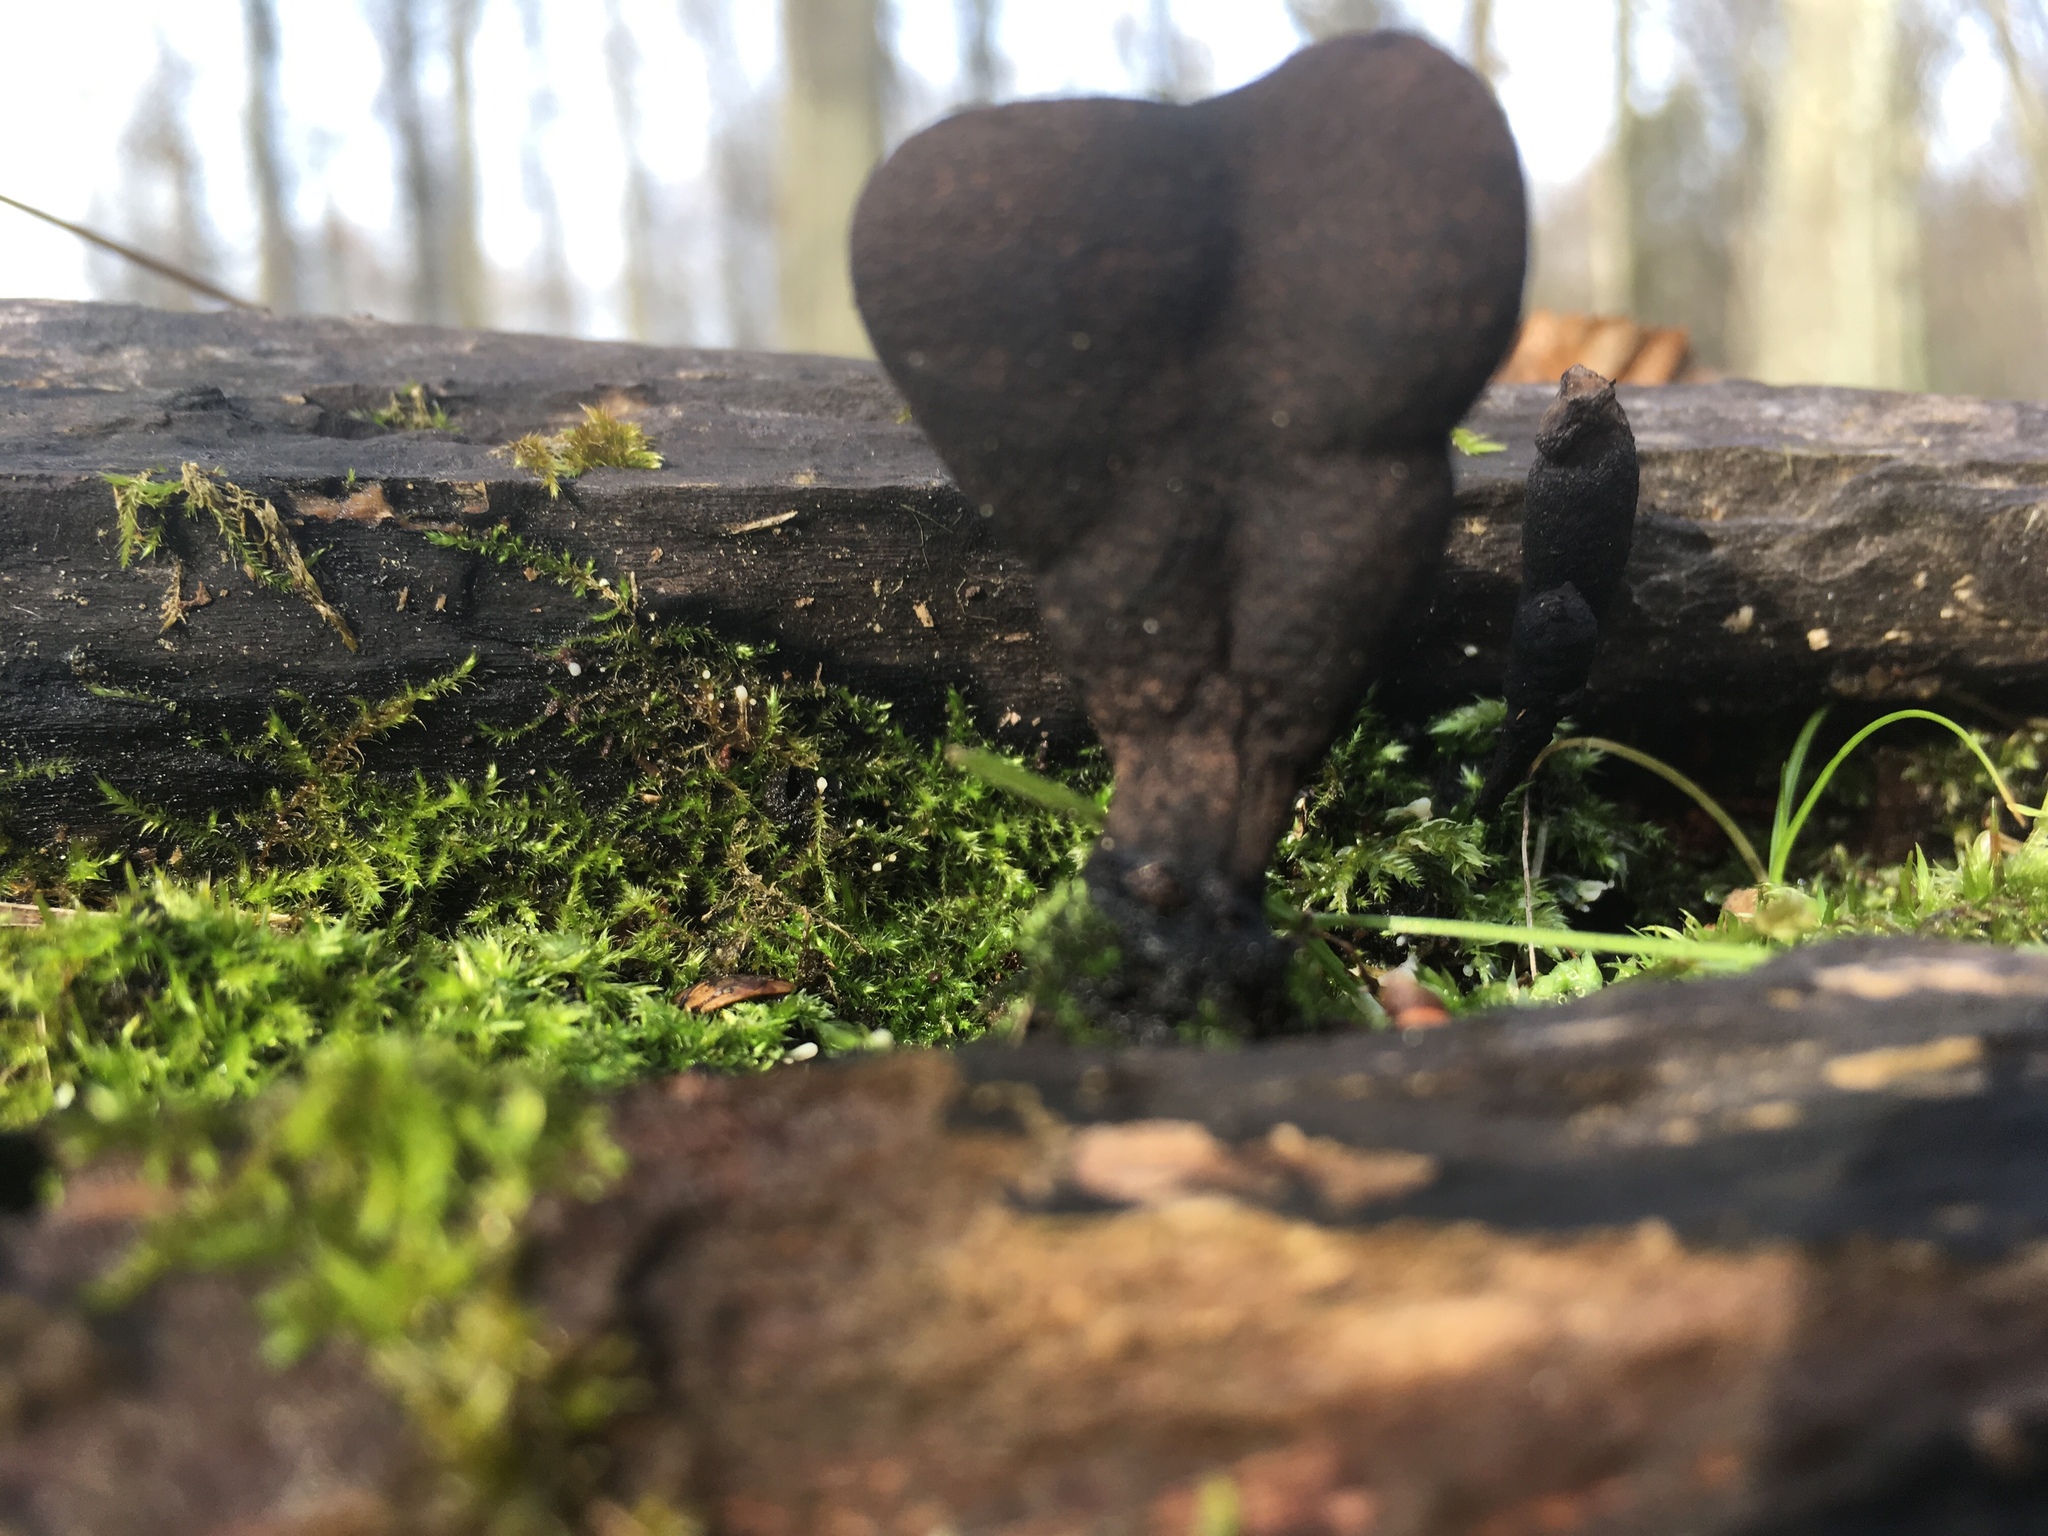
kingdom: Fungi
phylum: Ascomycota
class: Sordariomycetes
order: Xylariales
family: Xylariaceae
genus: Xylaria
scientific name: Xylaria polymorpha
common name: Dead man's fingers
